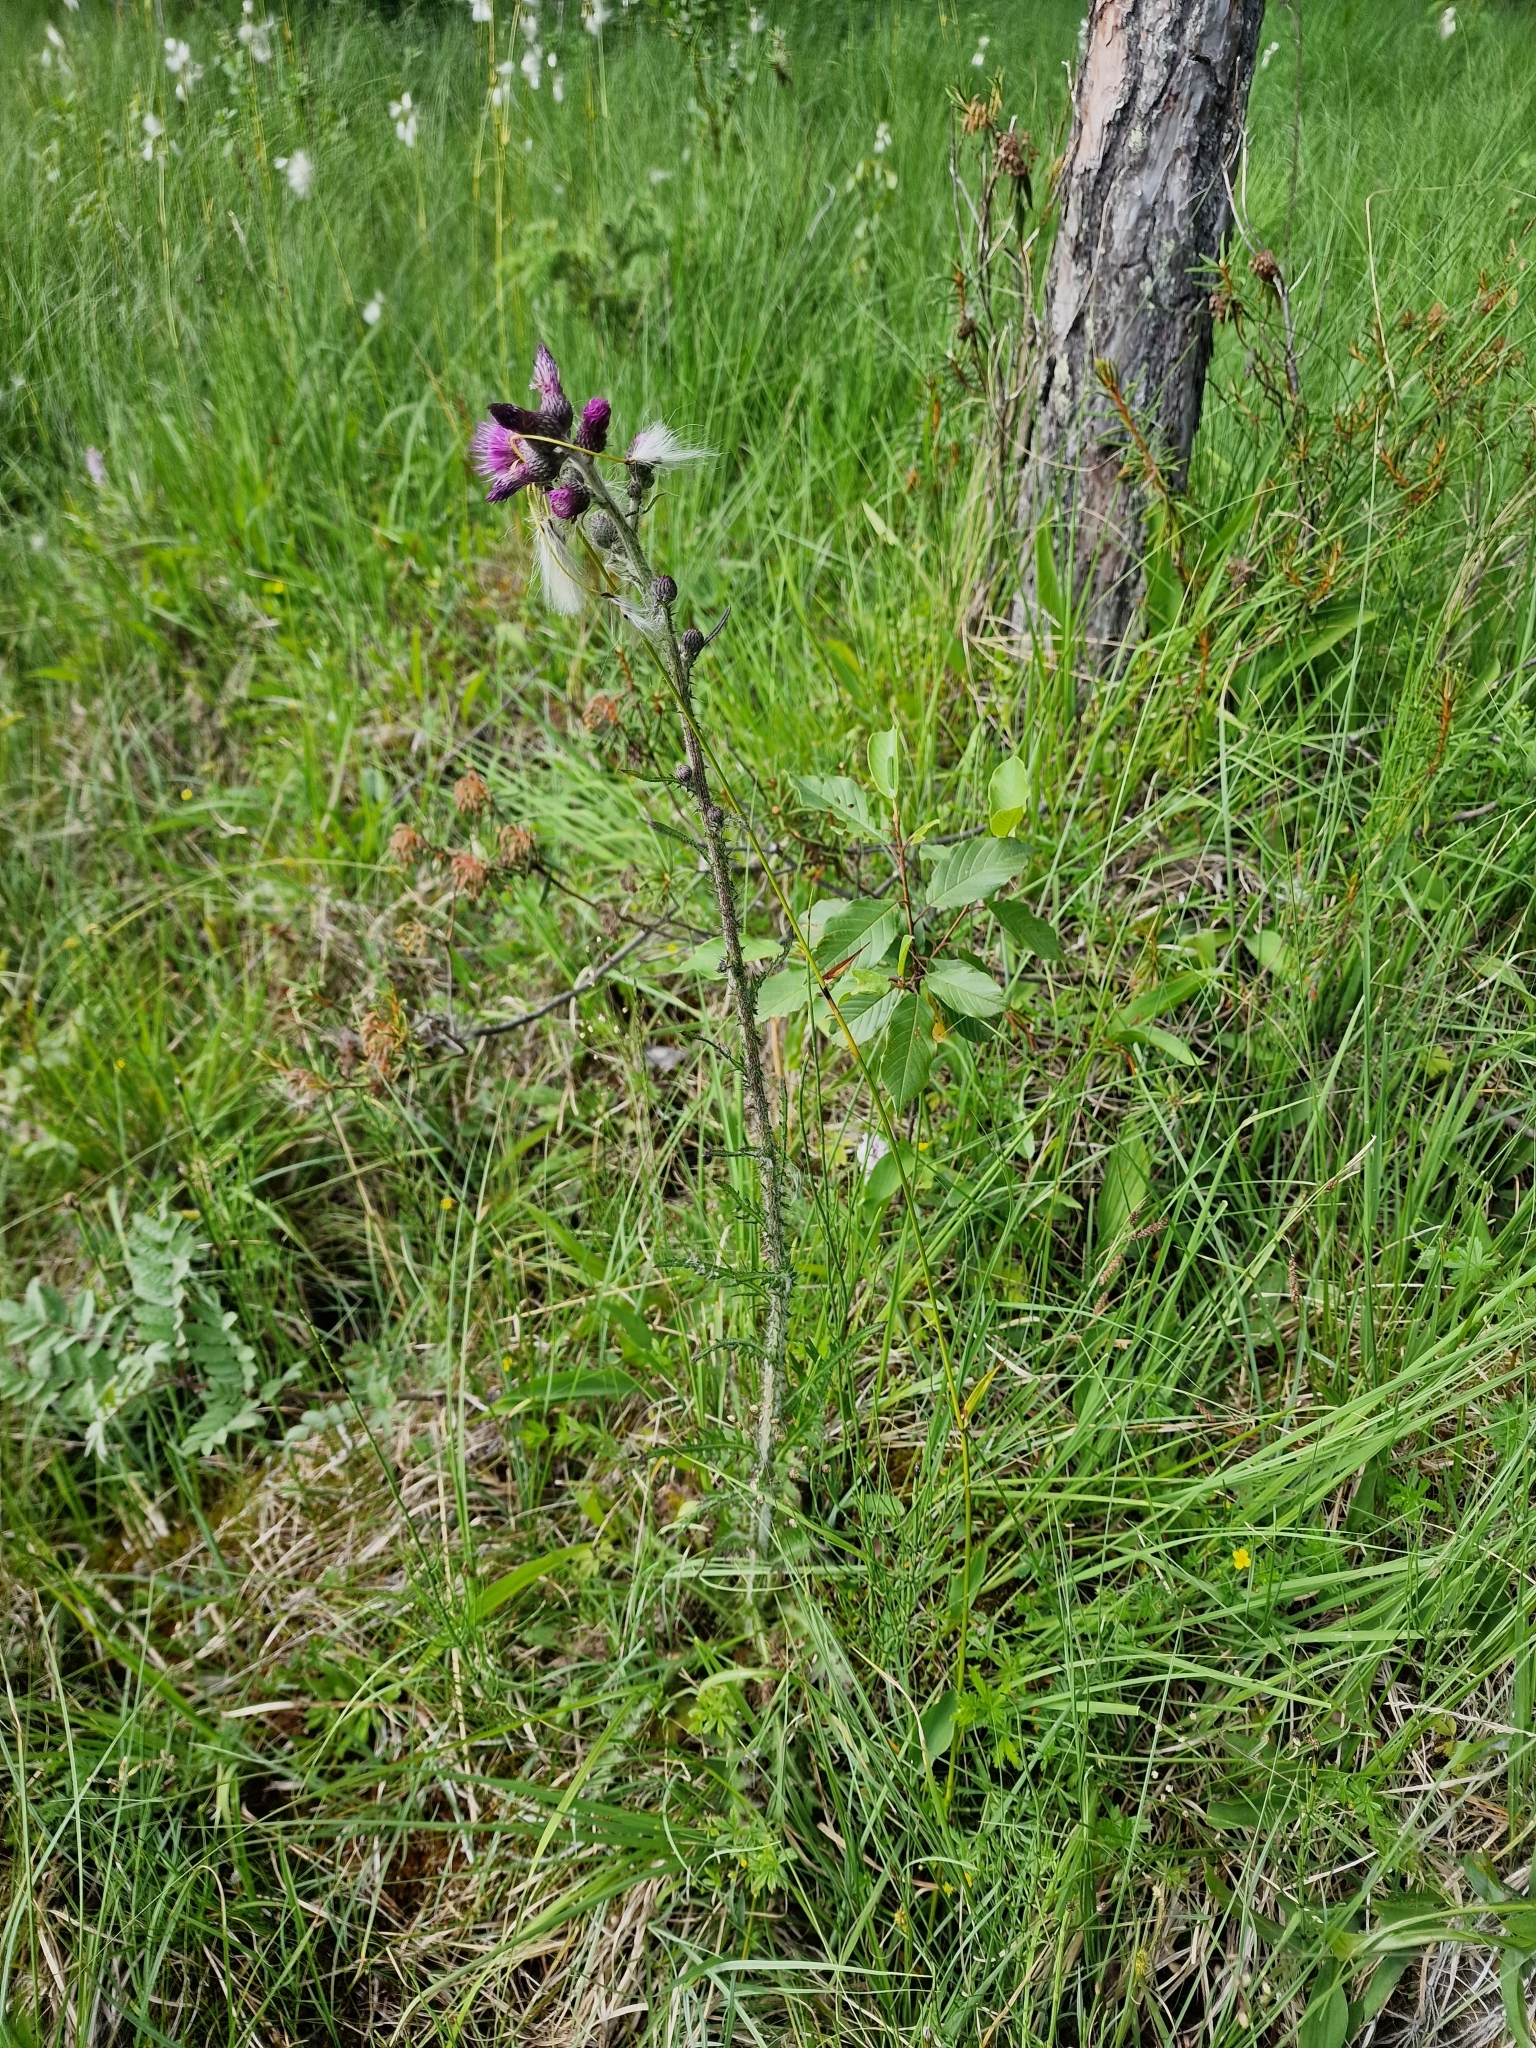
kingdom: Plantae
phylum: Tracheophyta
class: Magnoliopsida
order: Asterales
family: Asteraceae
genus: Cirsium
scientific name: Cirsium palustre
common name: Marsh thistle
